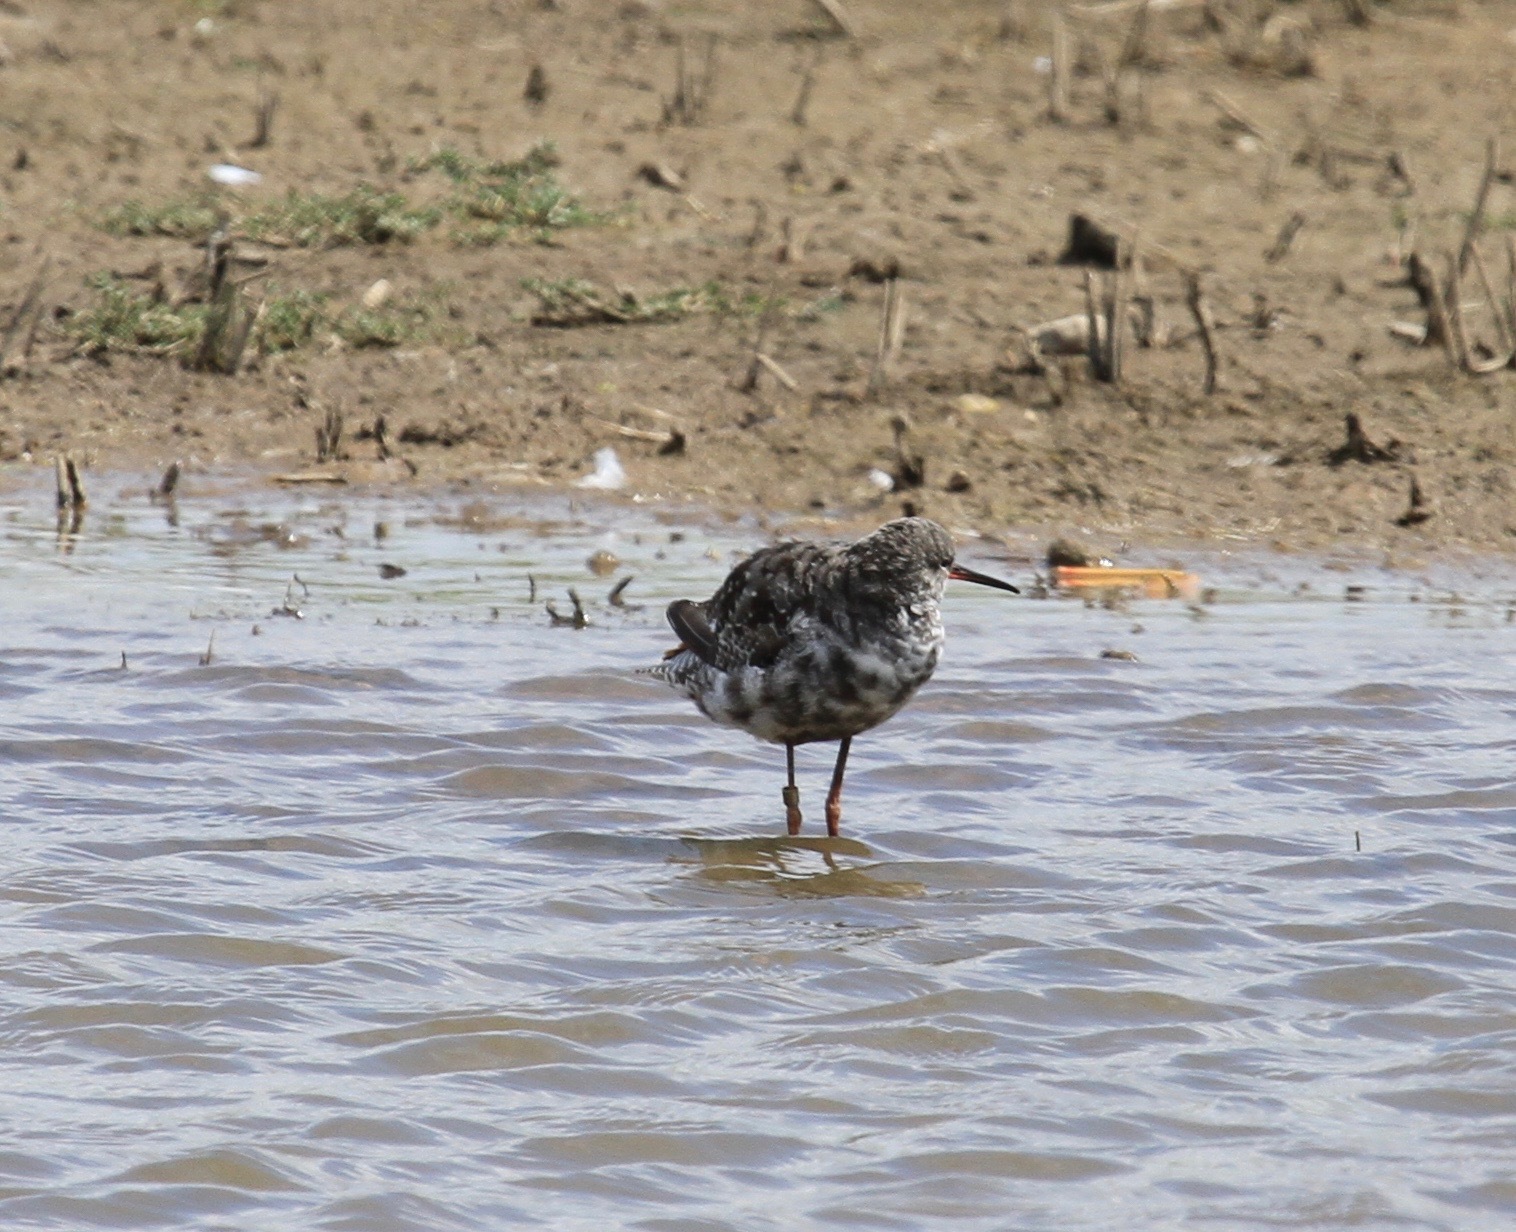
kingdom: Animalia
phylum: Chordata
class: Aves
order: Charadriiformes
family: Scolopacidae
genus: Tringa
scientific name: Tringa erythropus
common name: Spotted redshank
